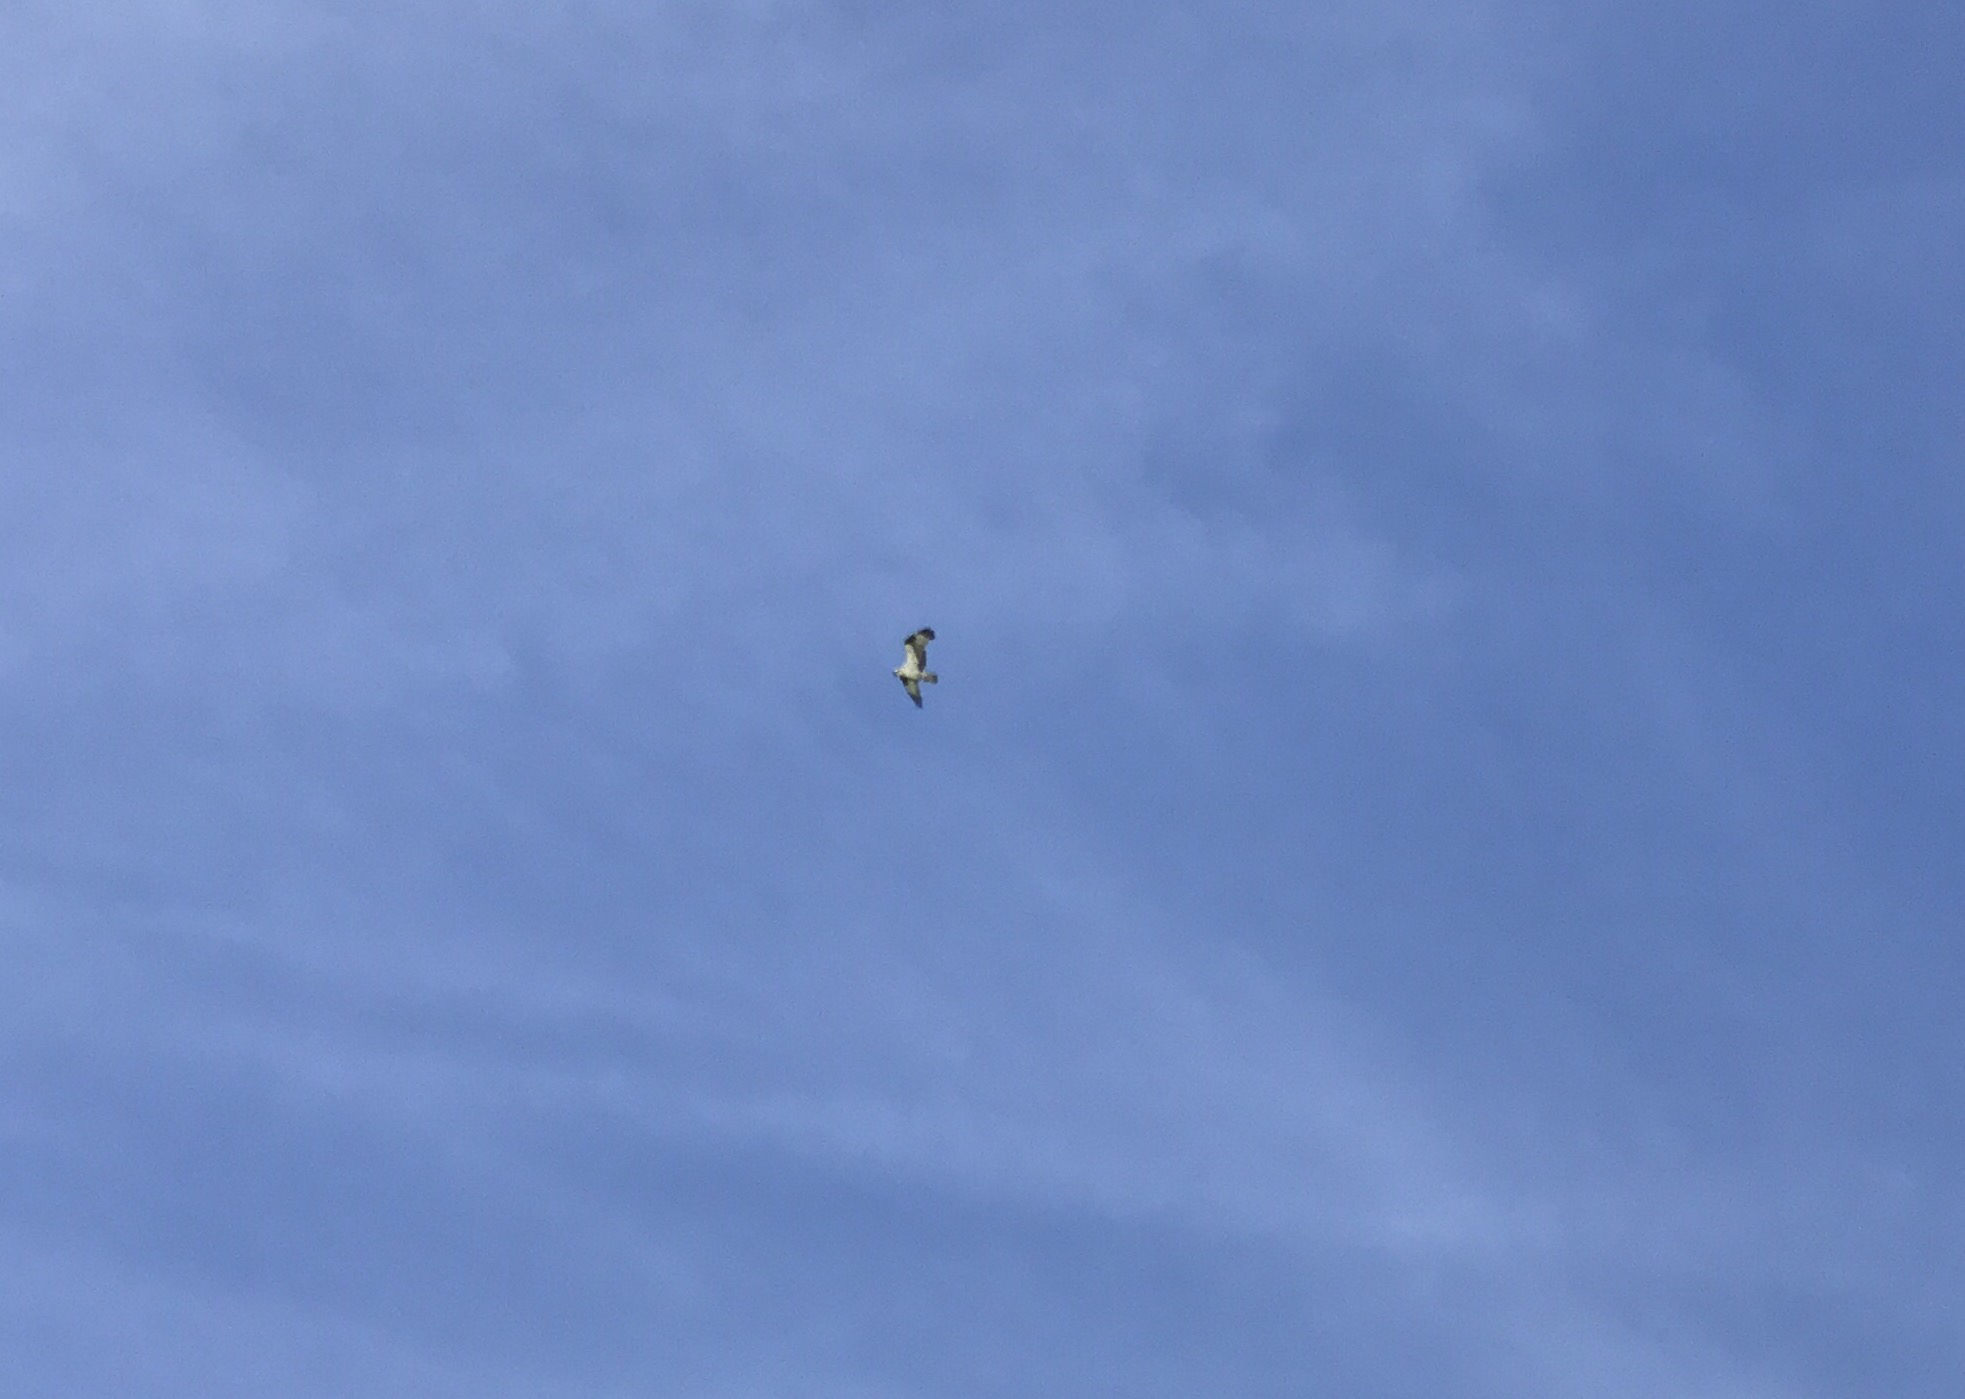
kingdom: Animalia
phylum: Chordata
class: Aves
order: Accipitriformes
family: Pandionidae
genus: Pandion
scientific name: Pandion haliaetus
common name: Osprey
